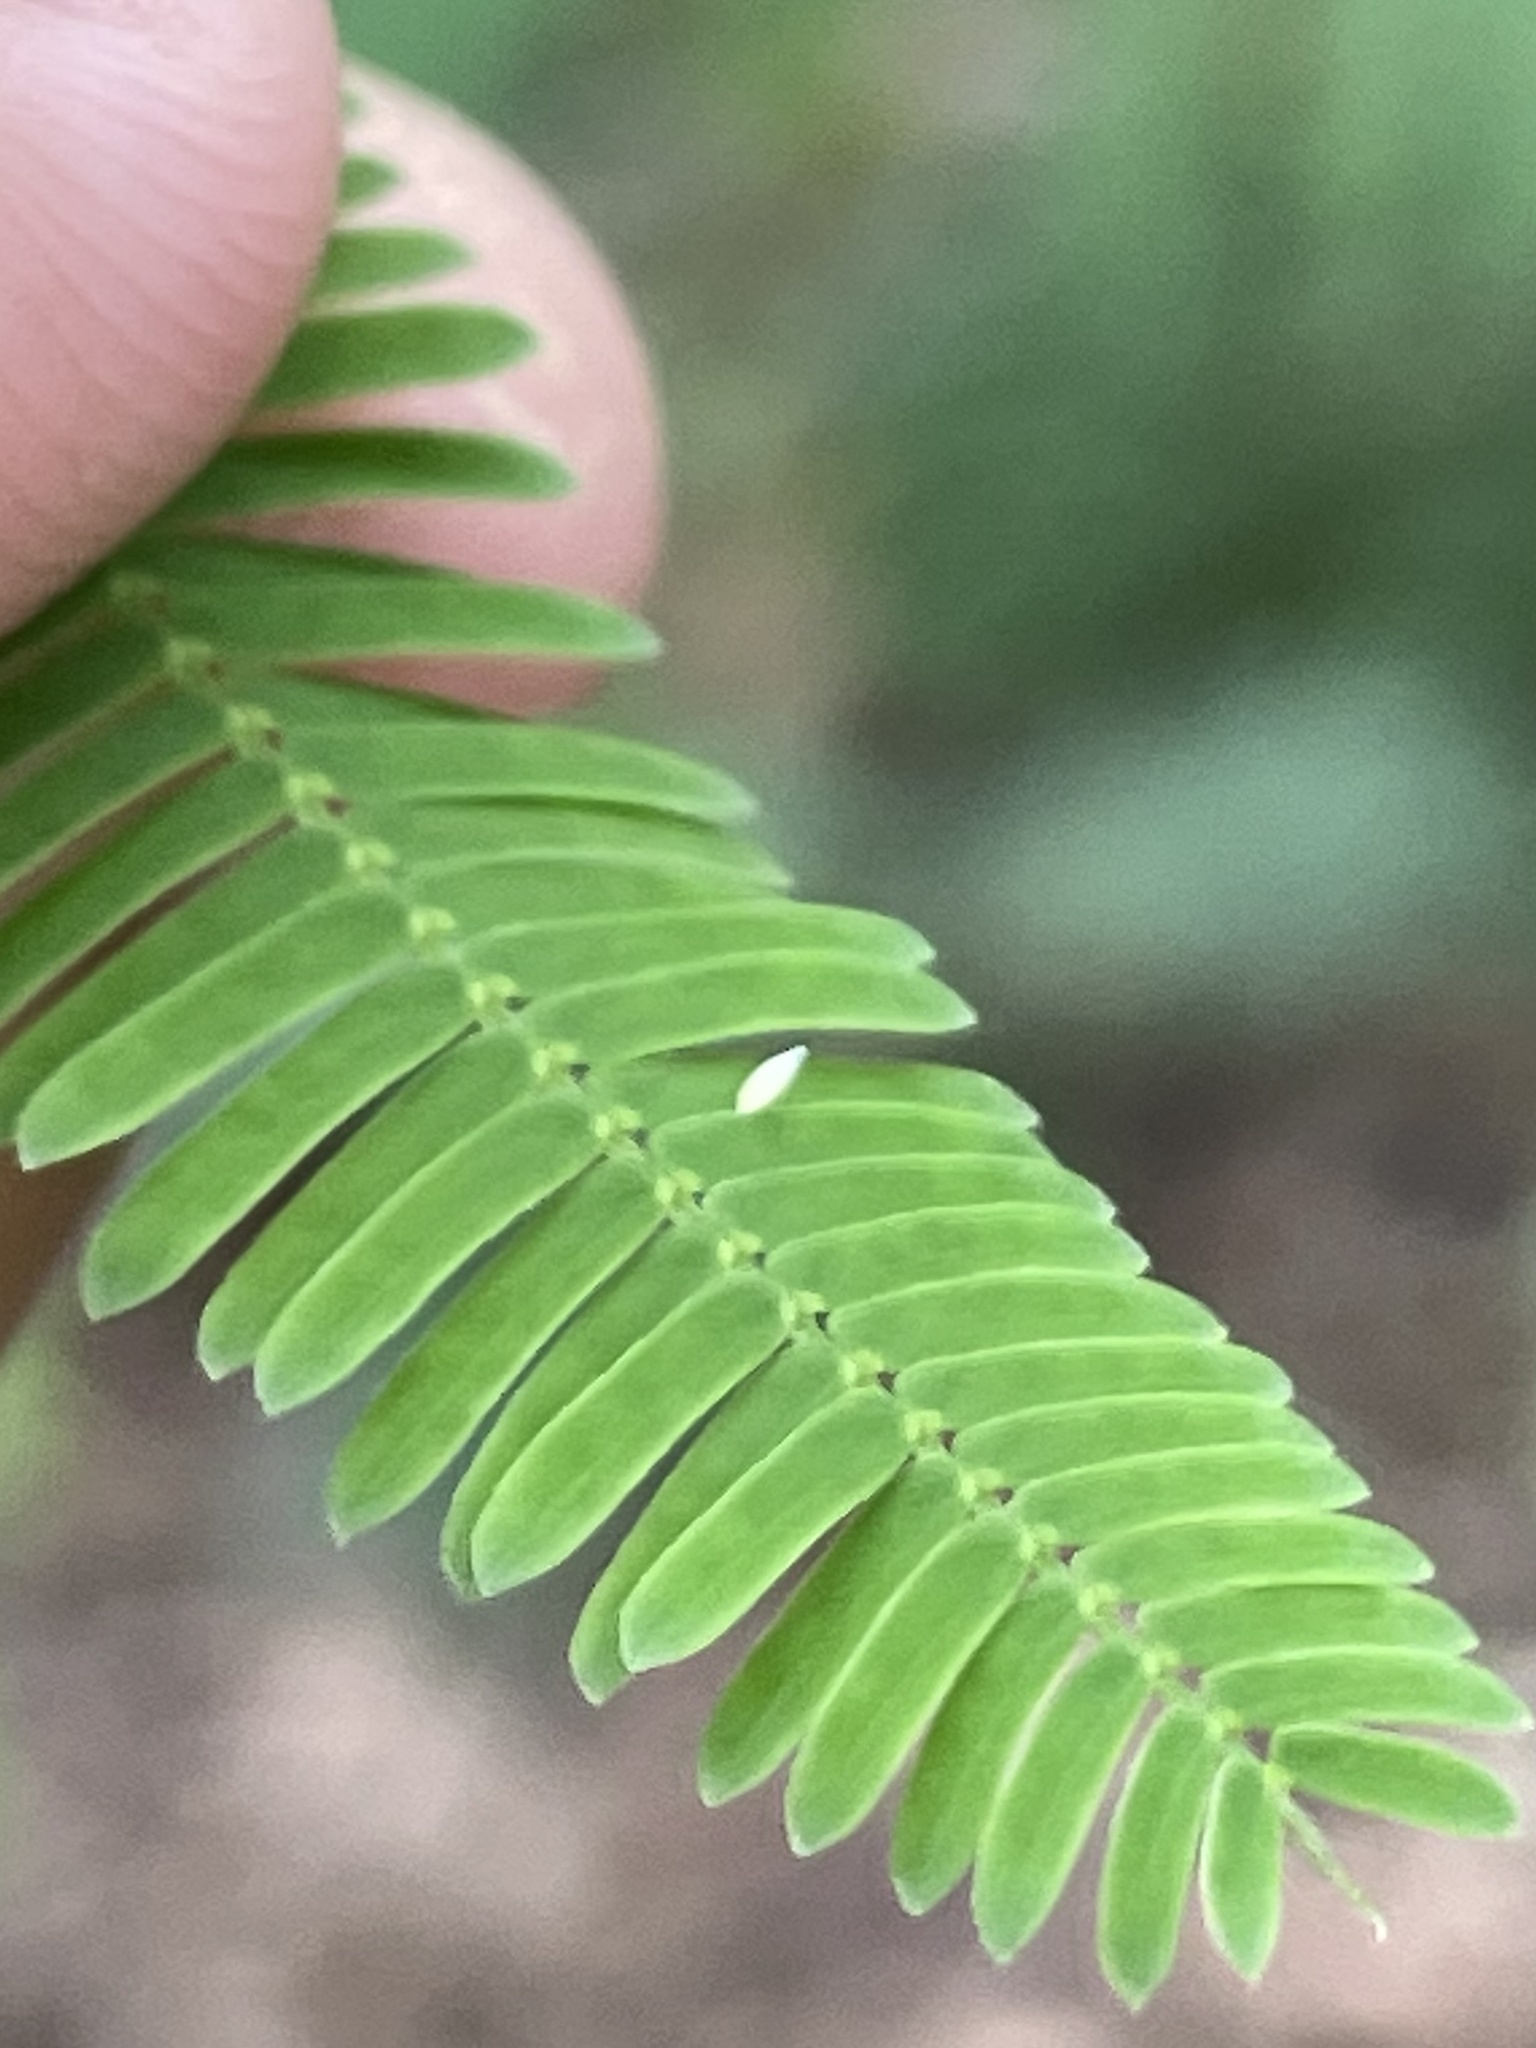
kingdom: Animalia
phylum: Arthropoda
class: Insecta
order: Lepidoptera
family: Pieridae
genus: Pyrisitia
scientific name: Pyrisitia nise
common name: Mimosa yellow
